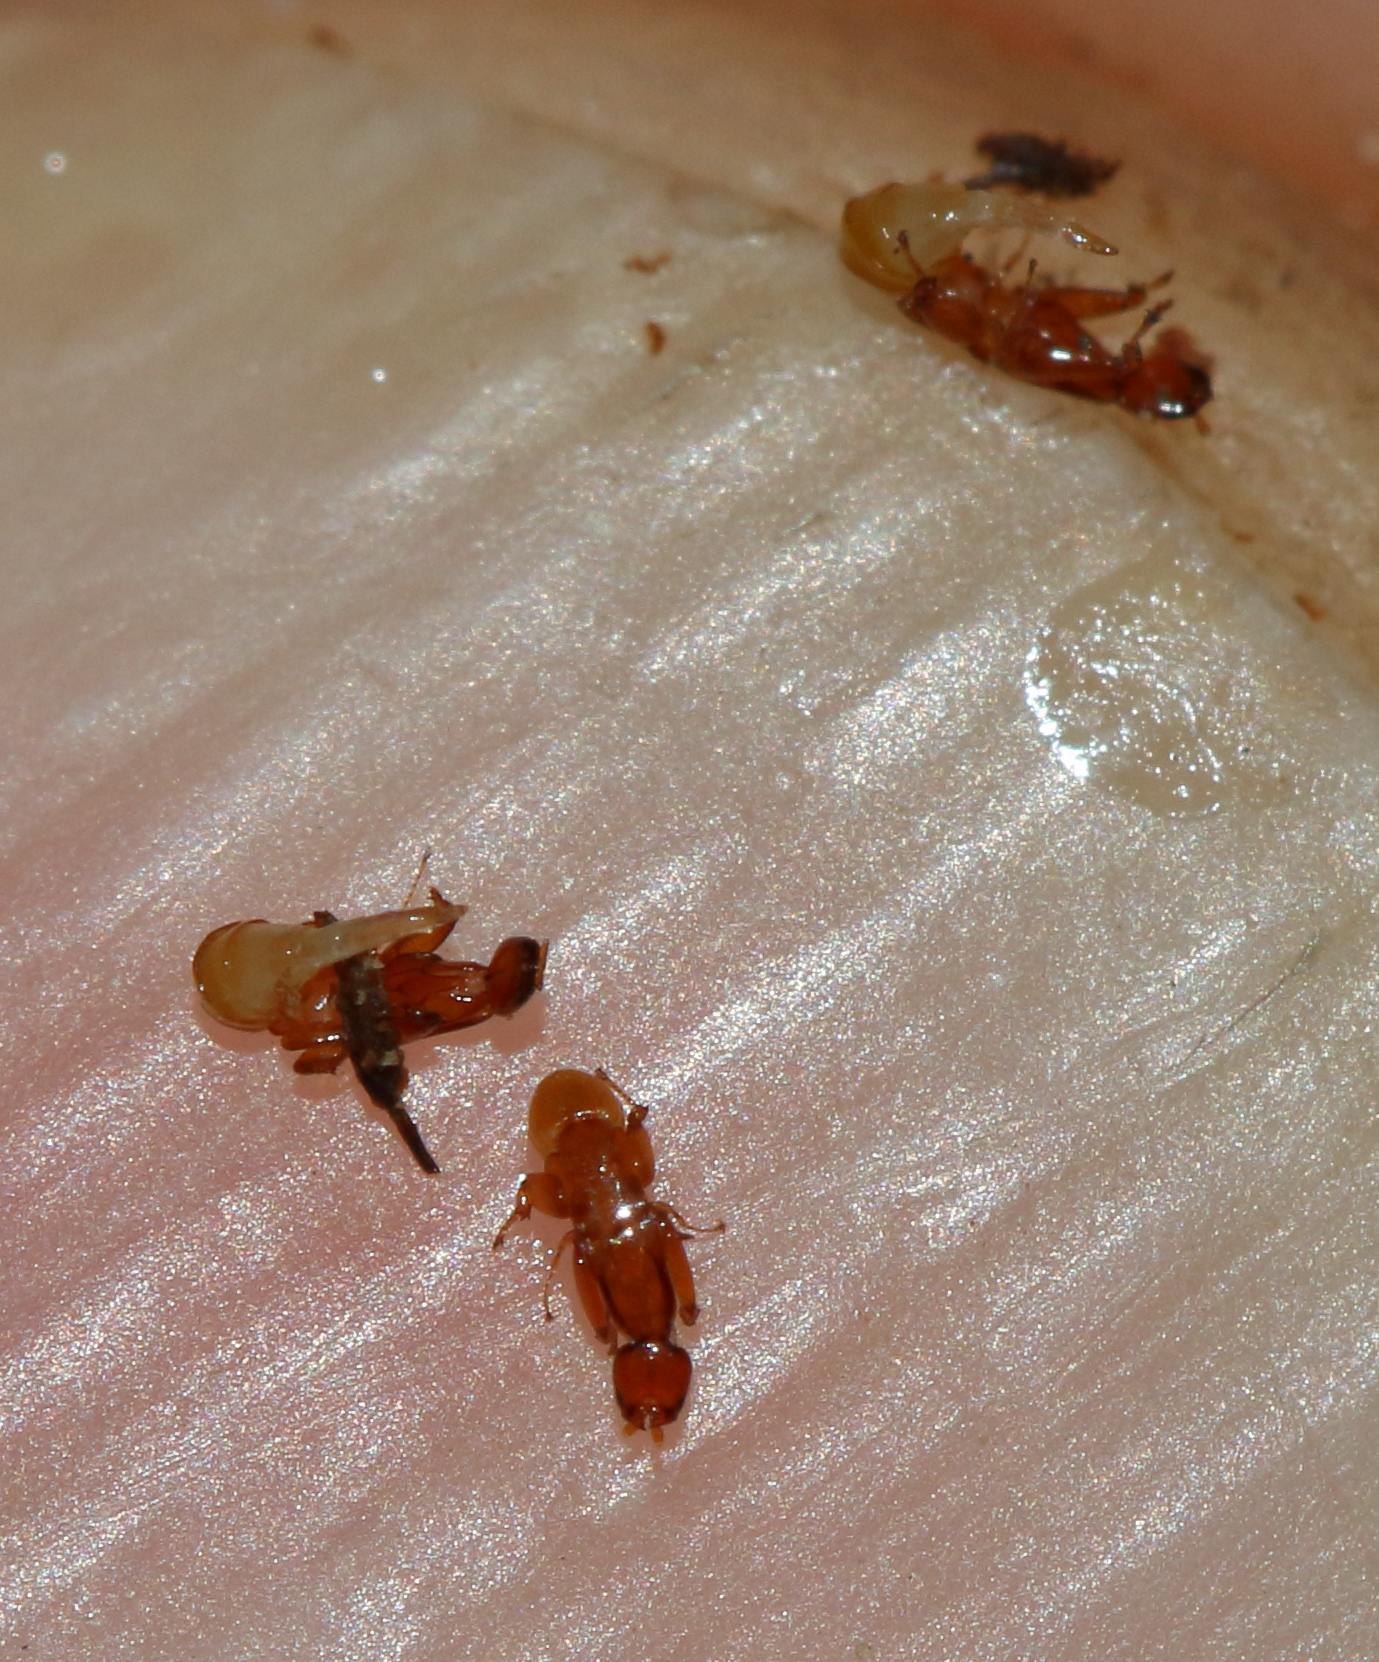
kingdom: Animalia
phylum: Arthropoda
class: Insecta
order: Hymenoptera
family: Agaonidae
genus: Elisabethiella
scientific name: Elisabethiella comptoni
